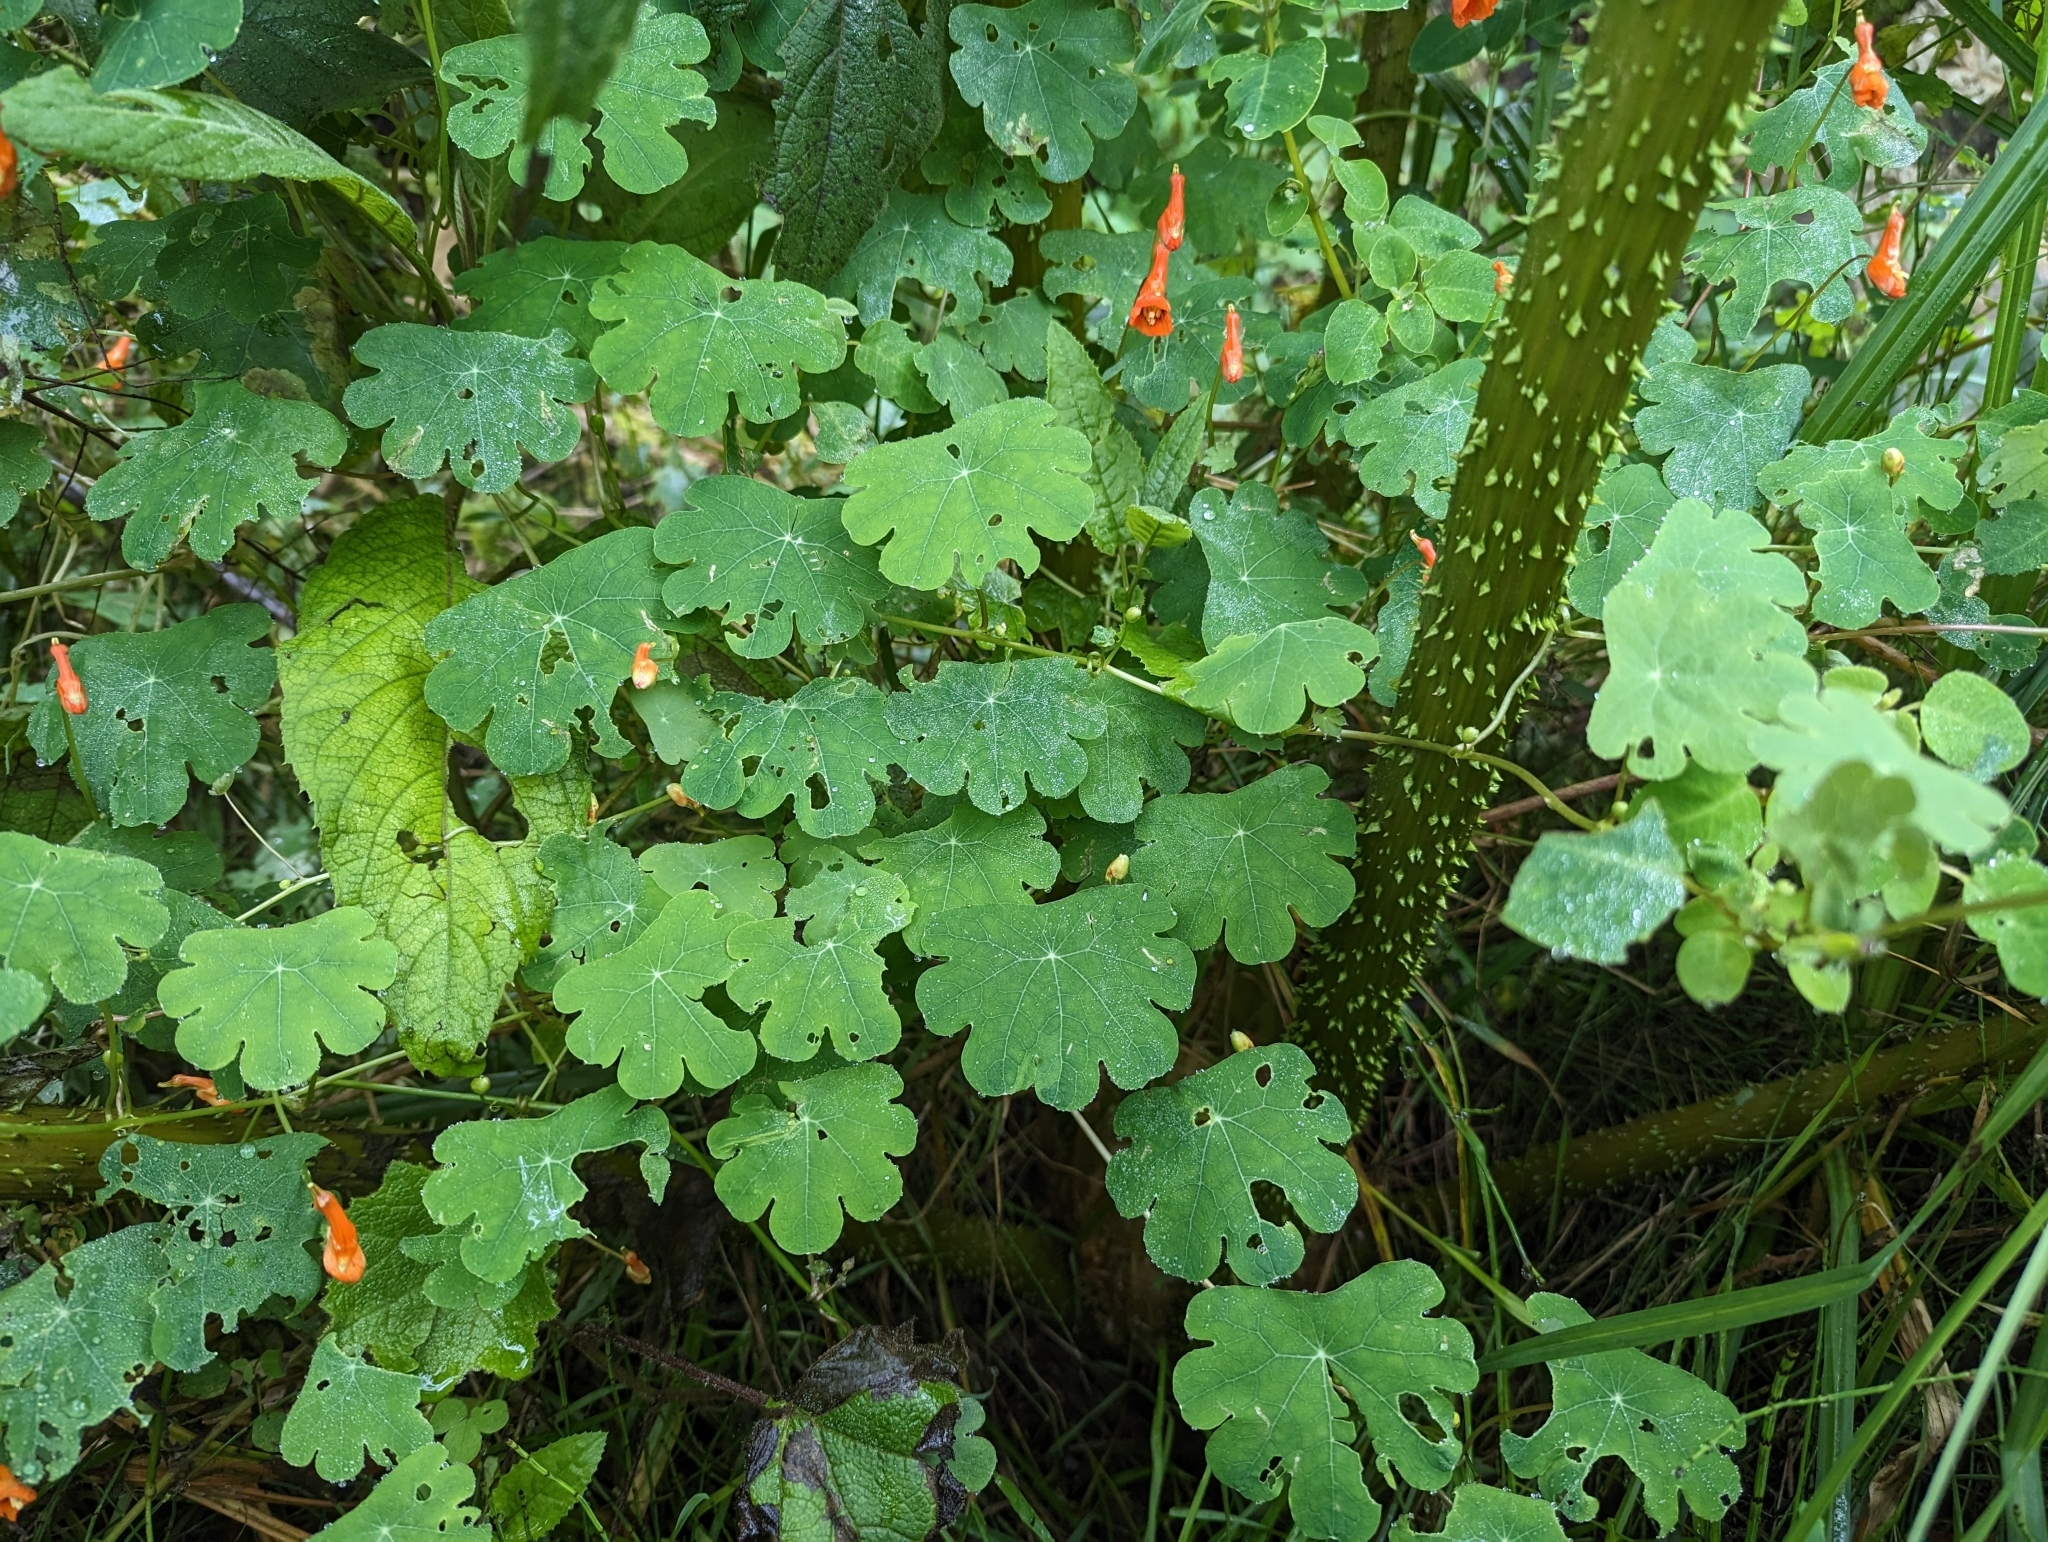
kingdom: Plantae
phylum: Tracheophyta
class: Magnoliopsida
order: Brassicales
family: Tropaeolaceae
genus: Tropaeolum
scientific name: Tropaeolum tuberosum
